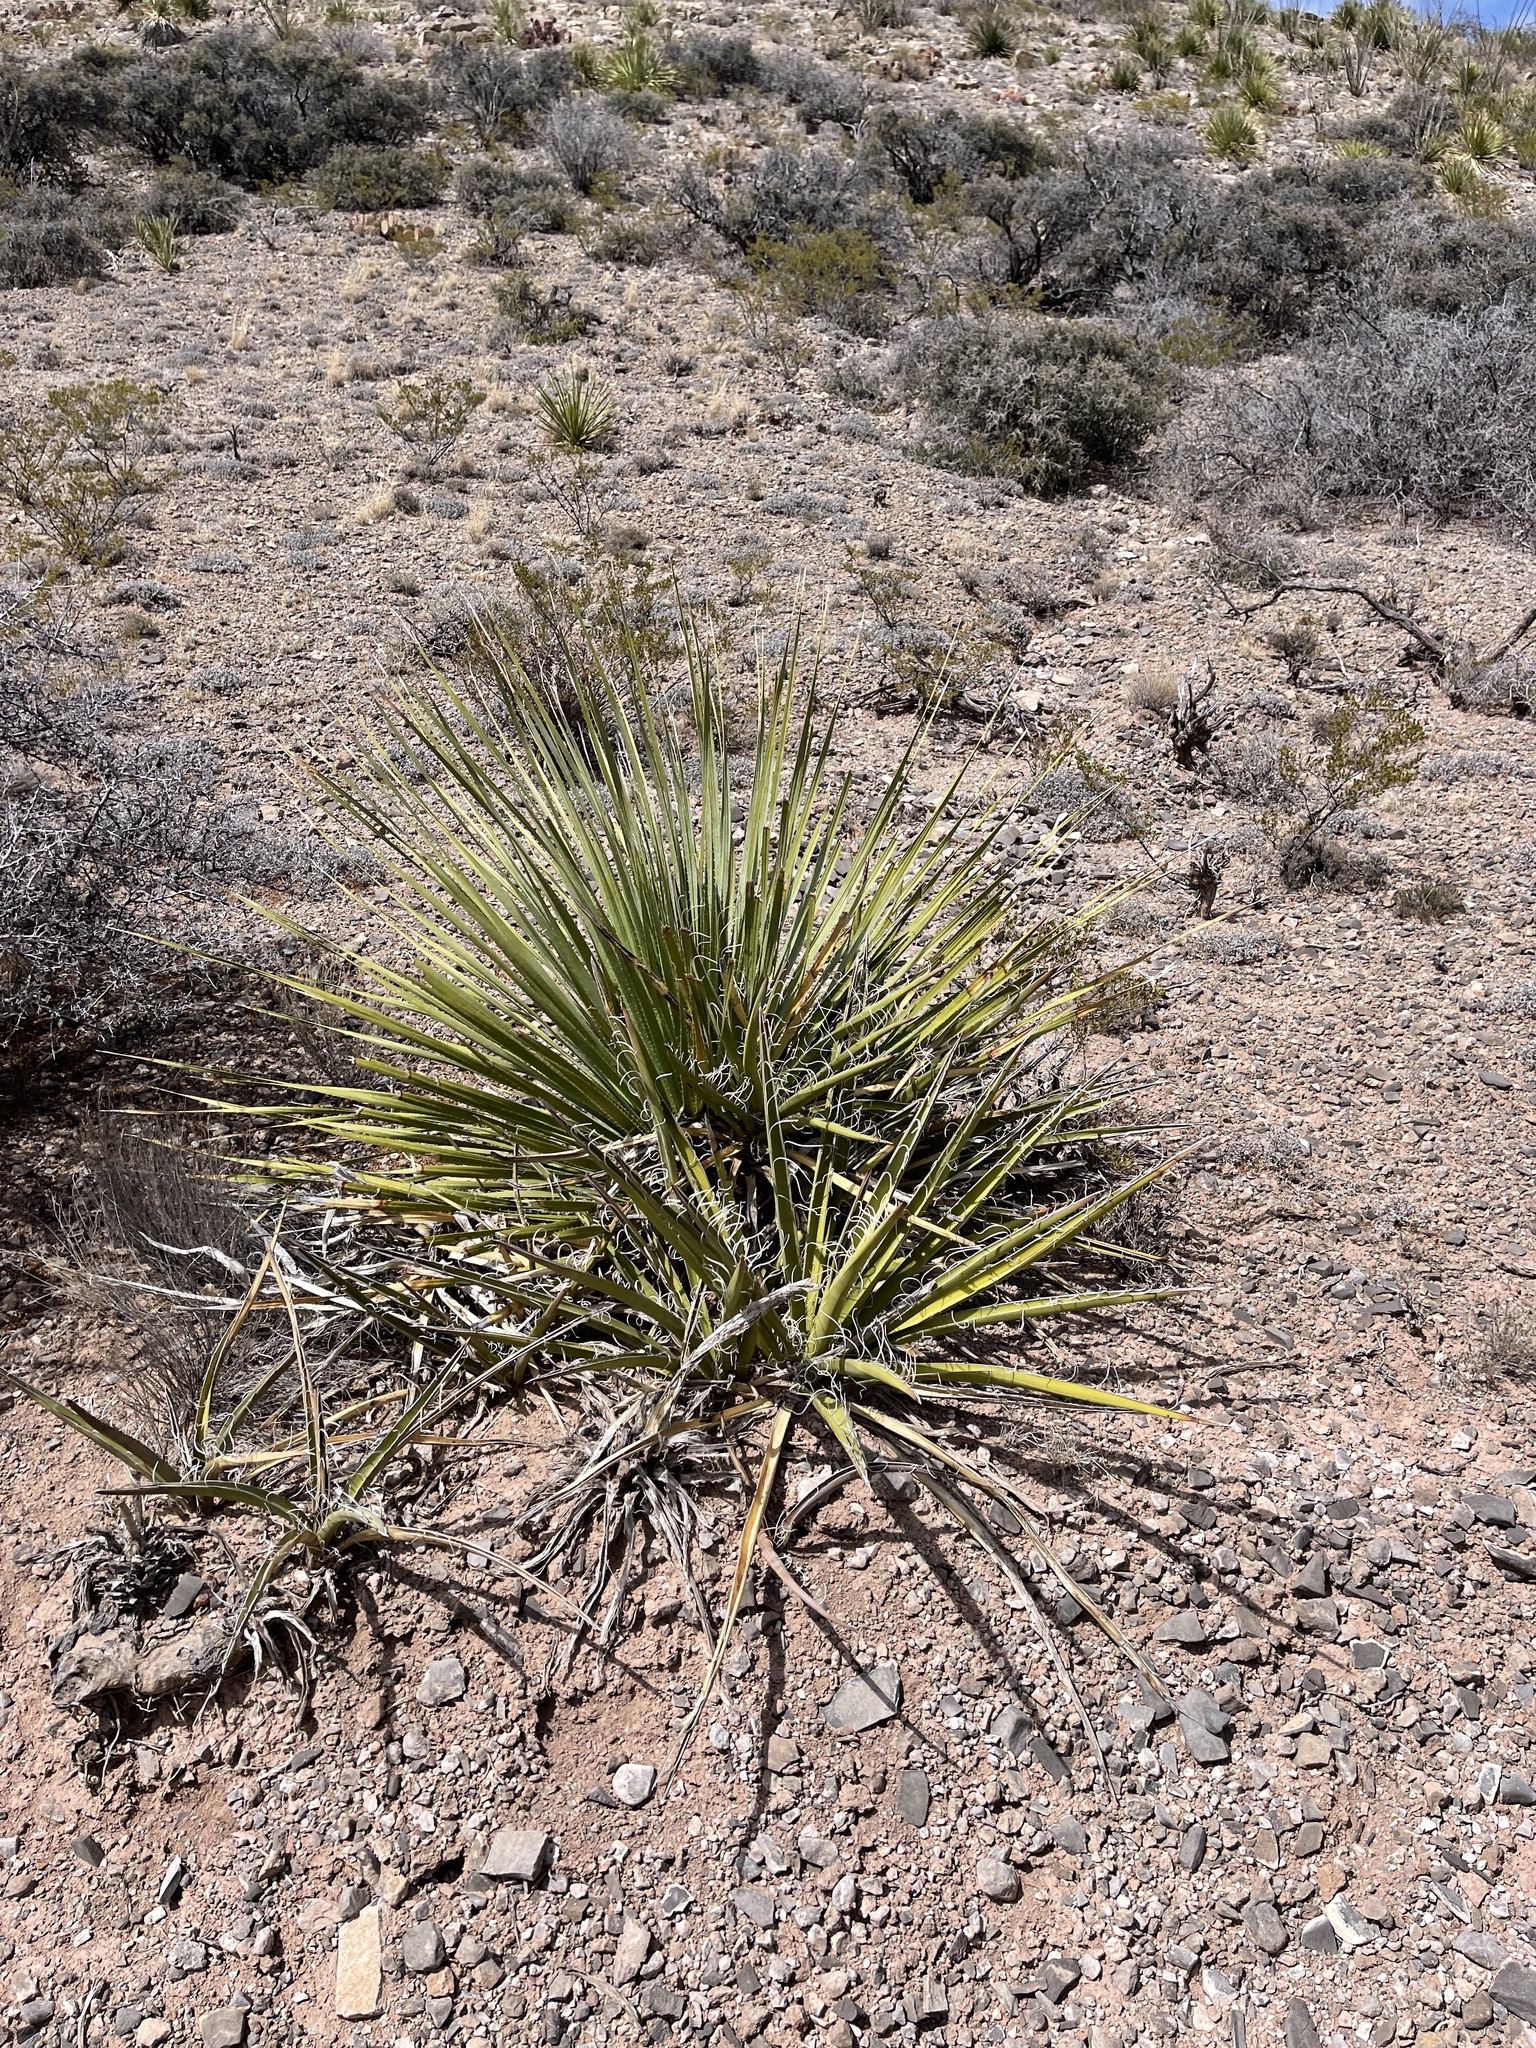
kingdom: Plantae
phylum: Tracheophyta
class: Liliopsida
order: Asparagales
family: Asparagaceae
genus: Yucca
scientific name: Yucca baccata
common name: Banana yucca
